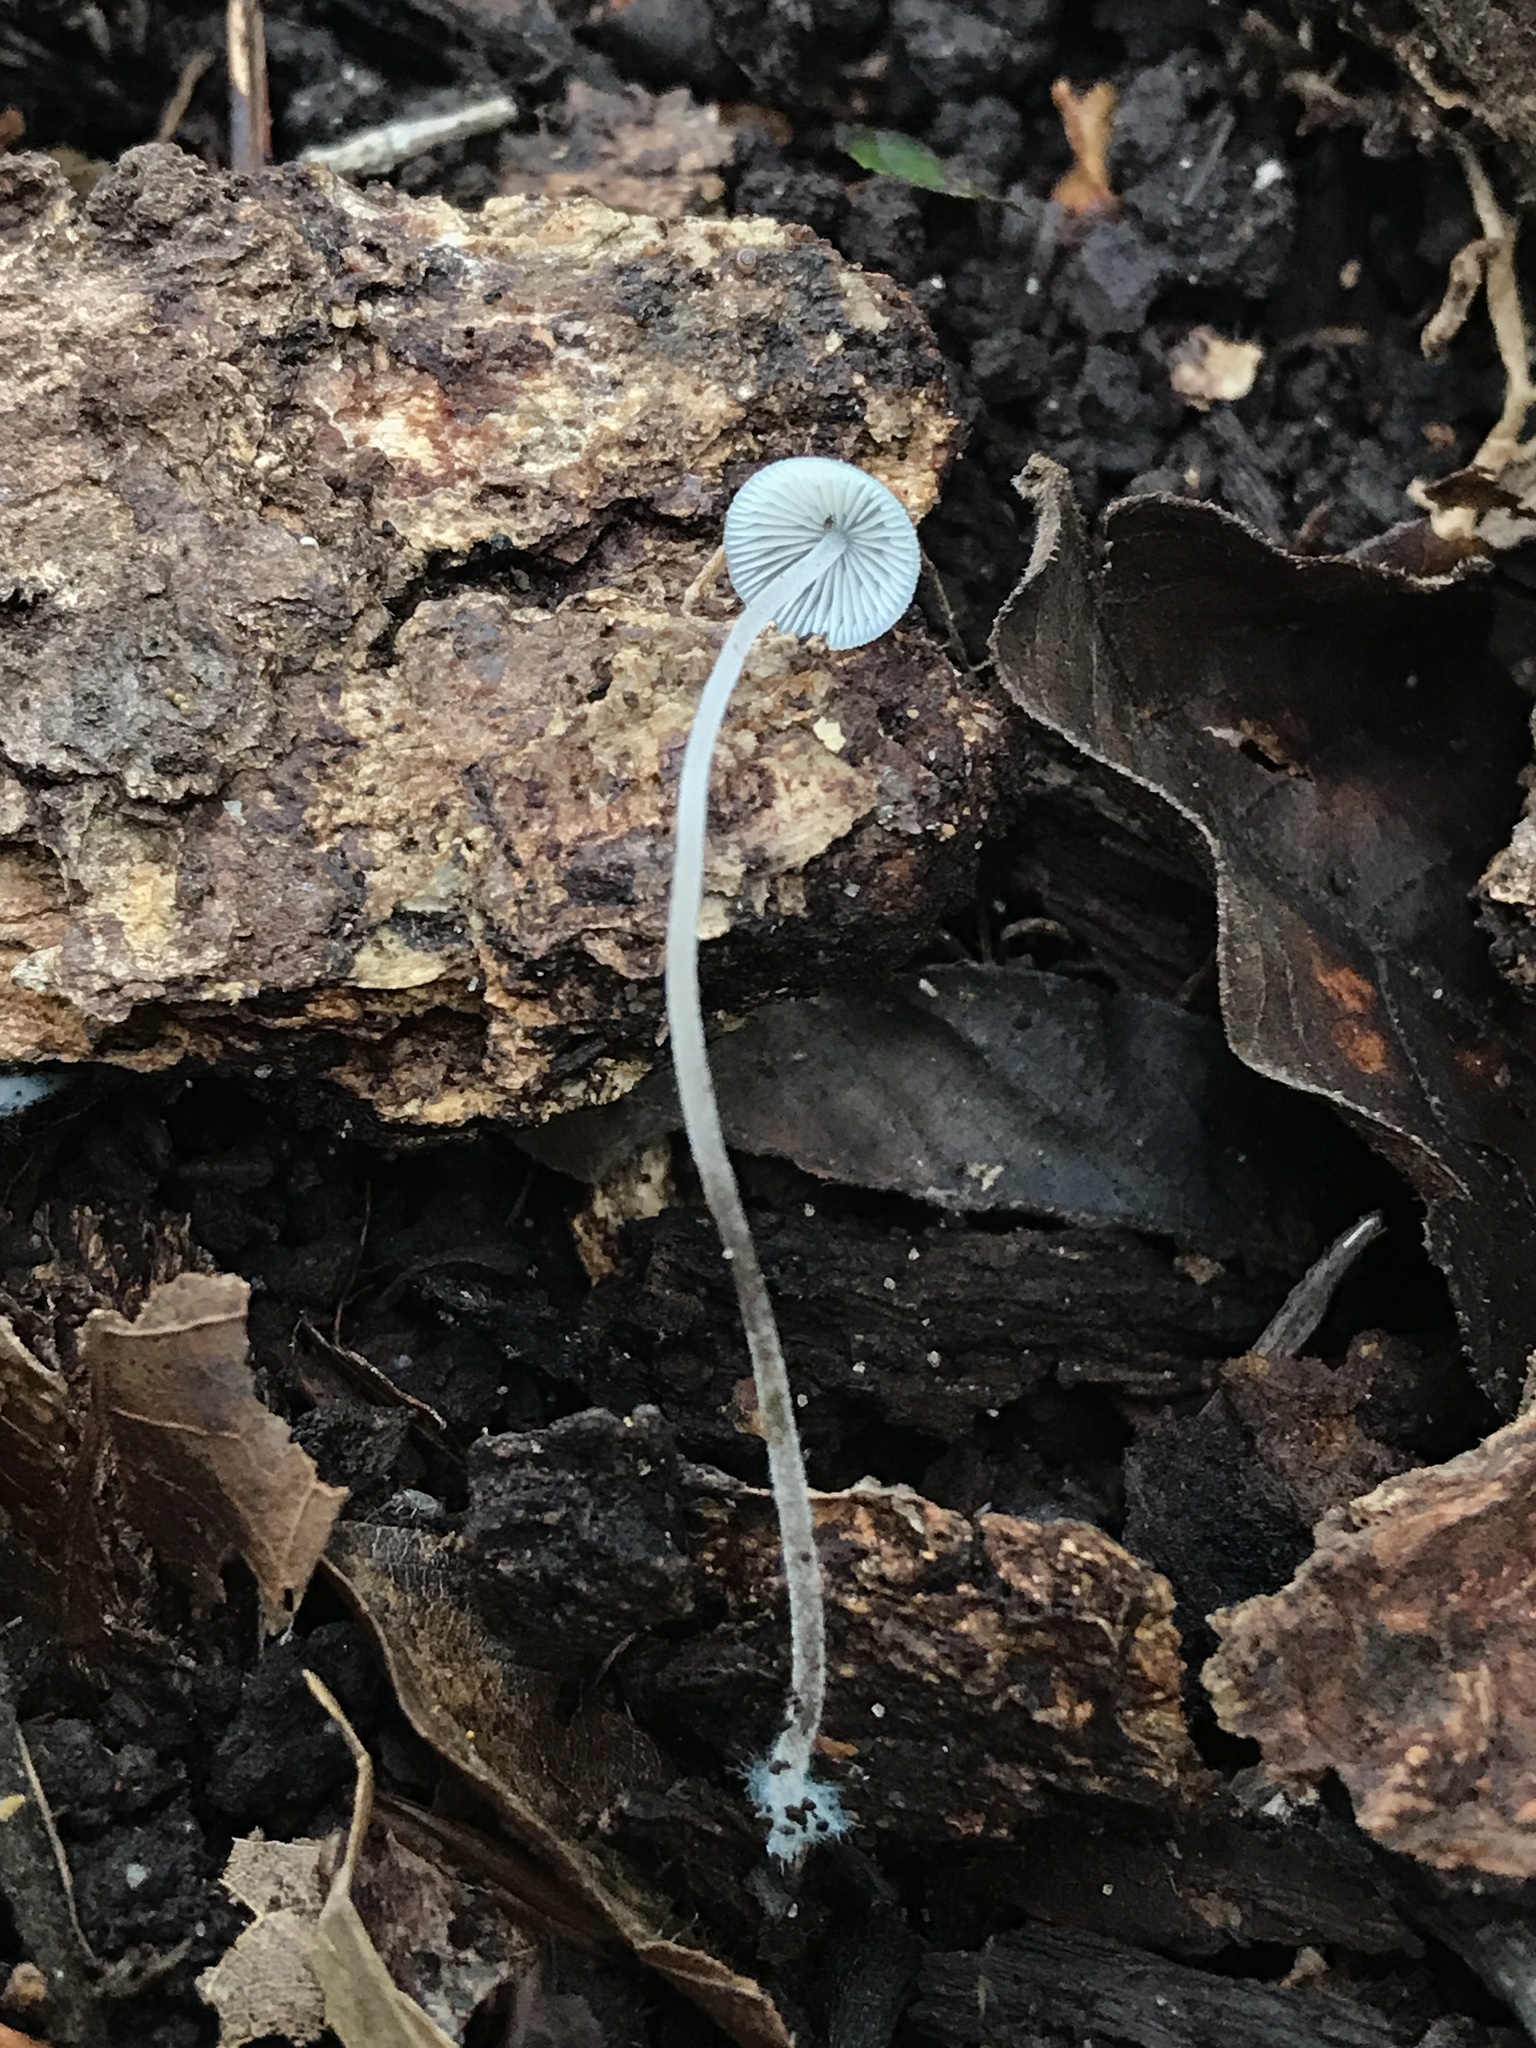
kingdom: Fungi
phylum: Basidiomycota
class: Agaricomycetes
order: Agaricales
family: Mycenaceae
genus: Mycena
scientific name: Mycena subcaerulea
